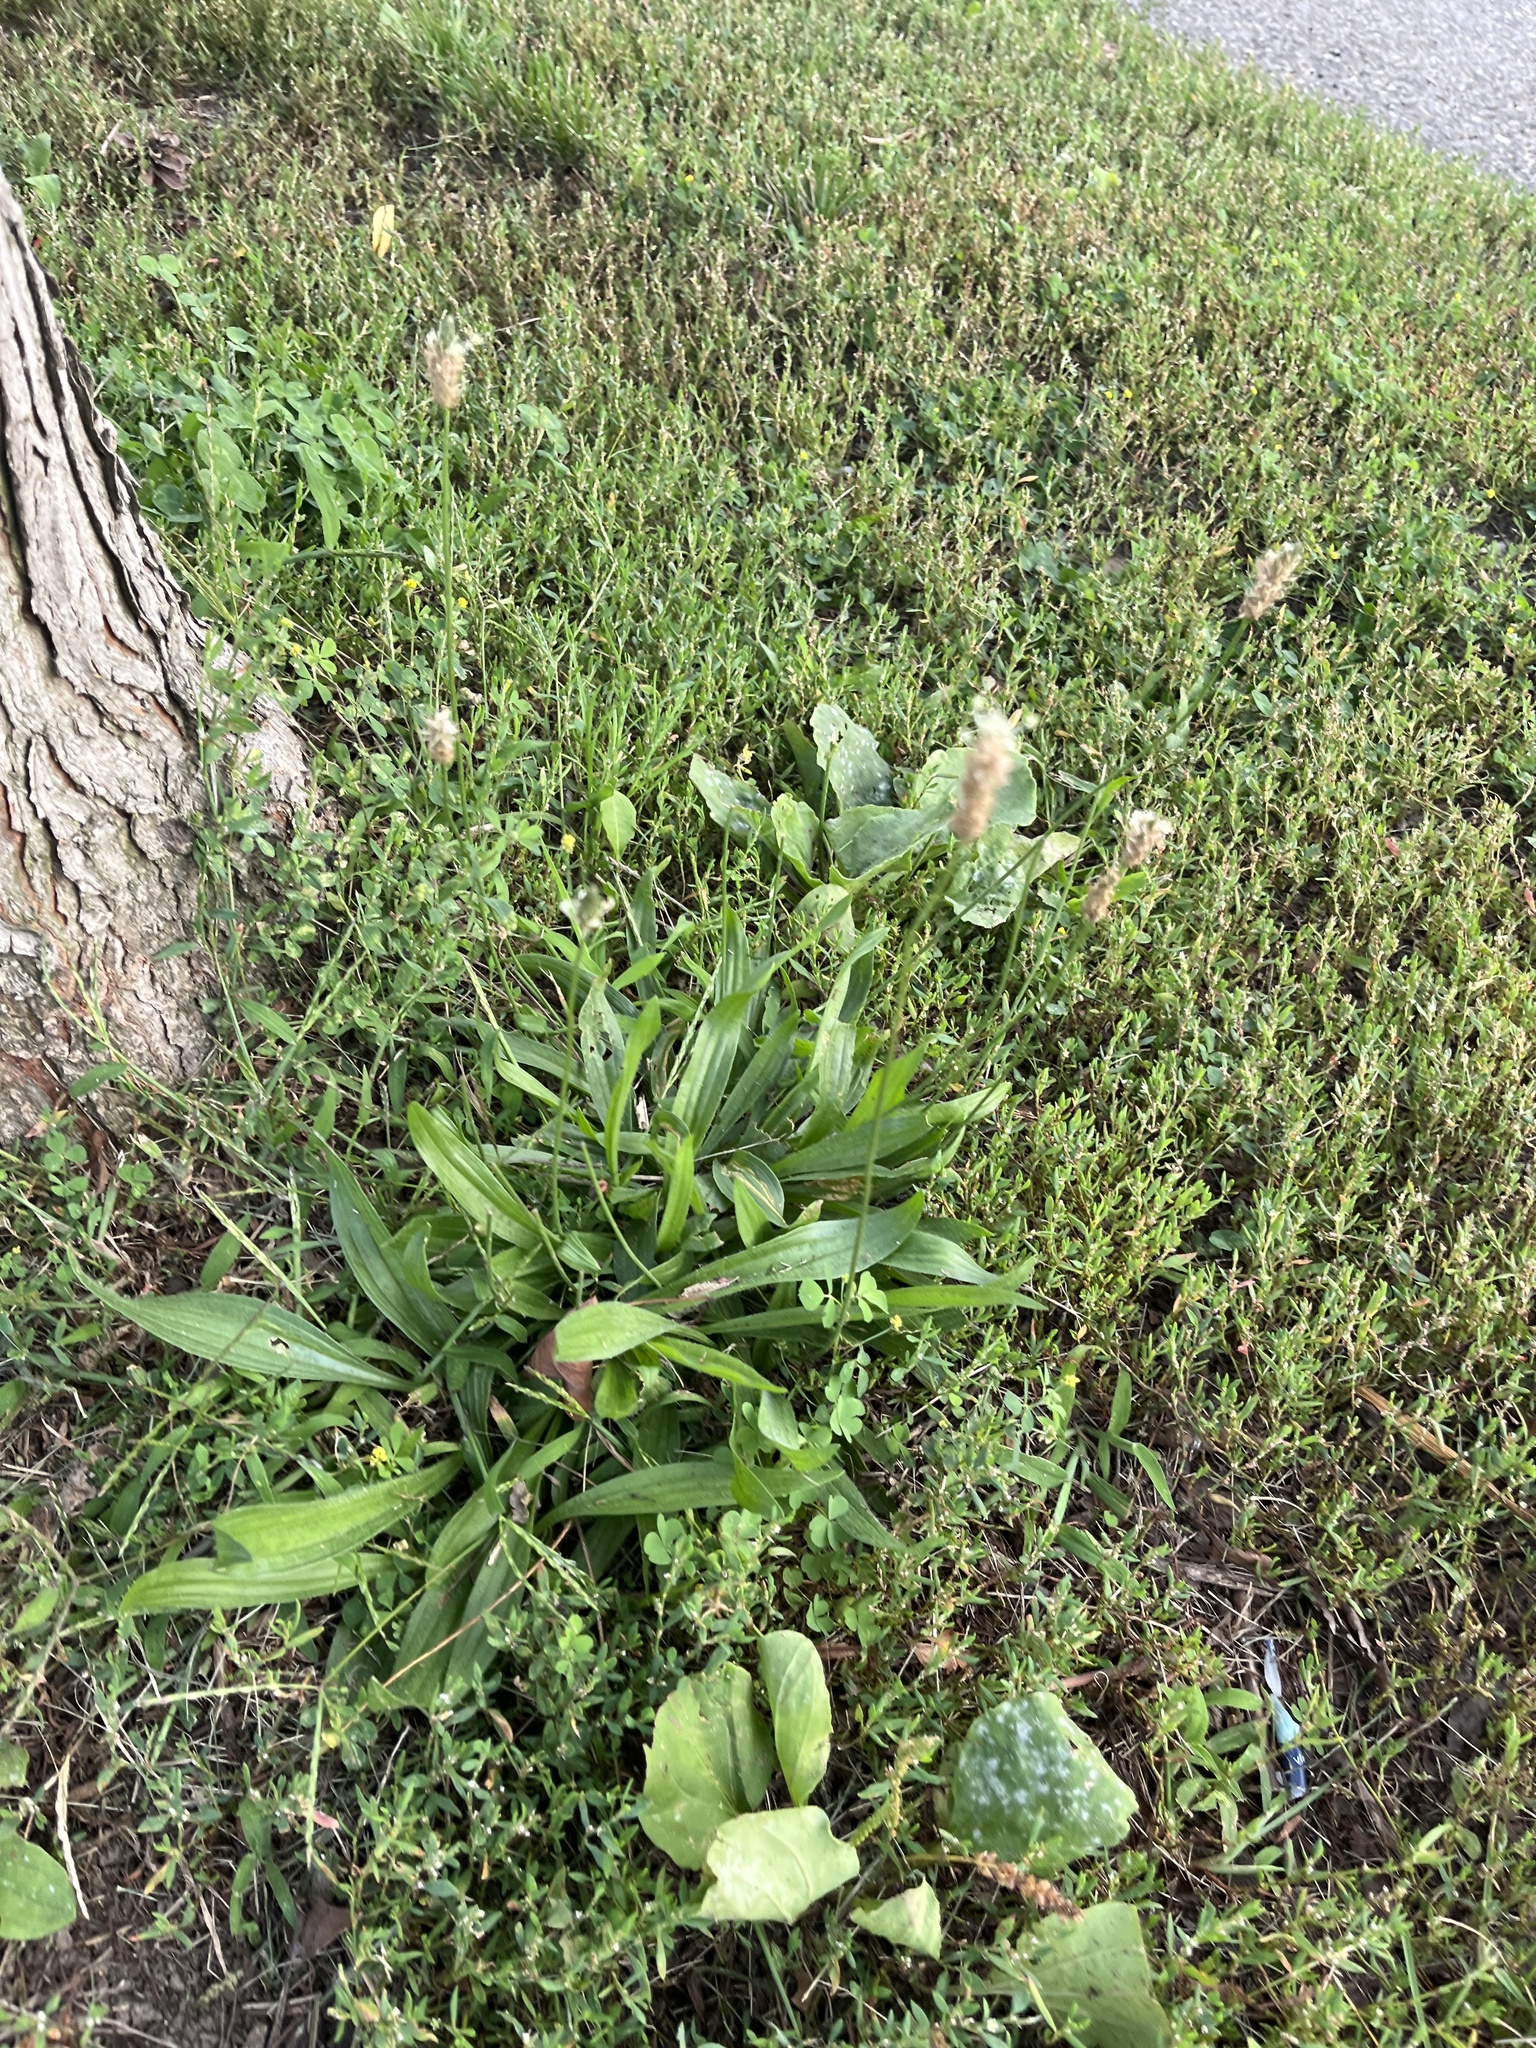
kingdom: Plantae
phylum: Tracheophyta
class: Magnoliopsida
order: Lamiales
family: Plantaginaceae
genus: Plantago
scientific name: Plantago lanceolata
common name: Ribwort plantain
